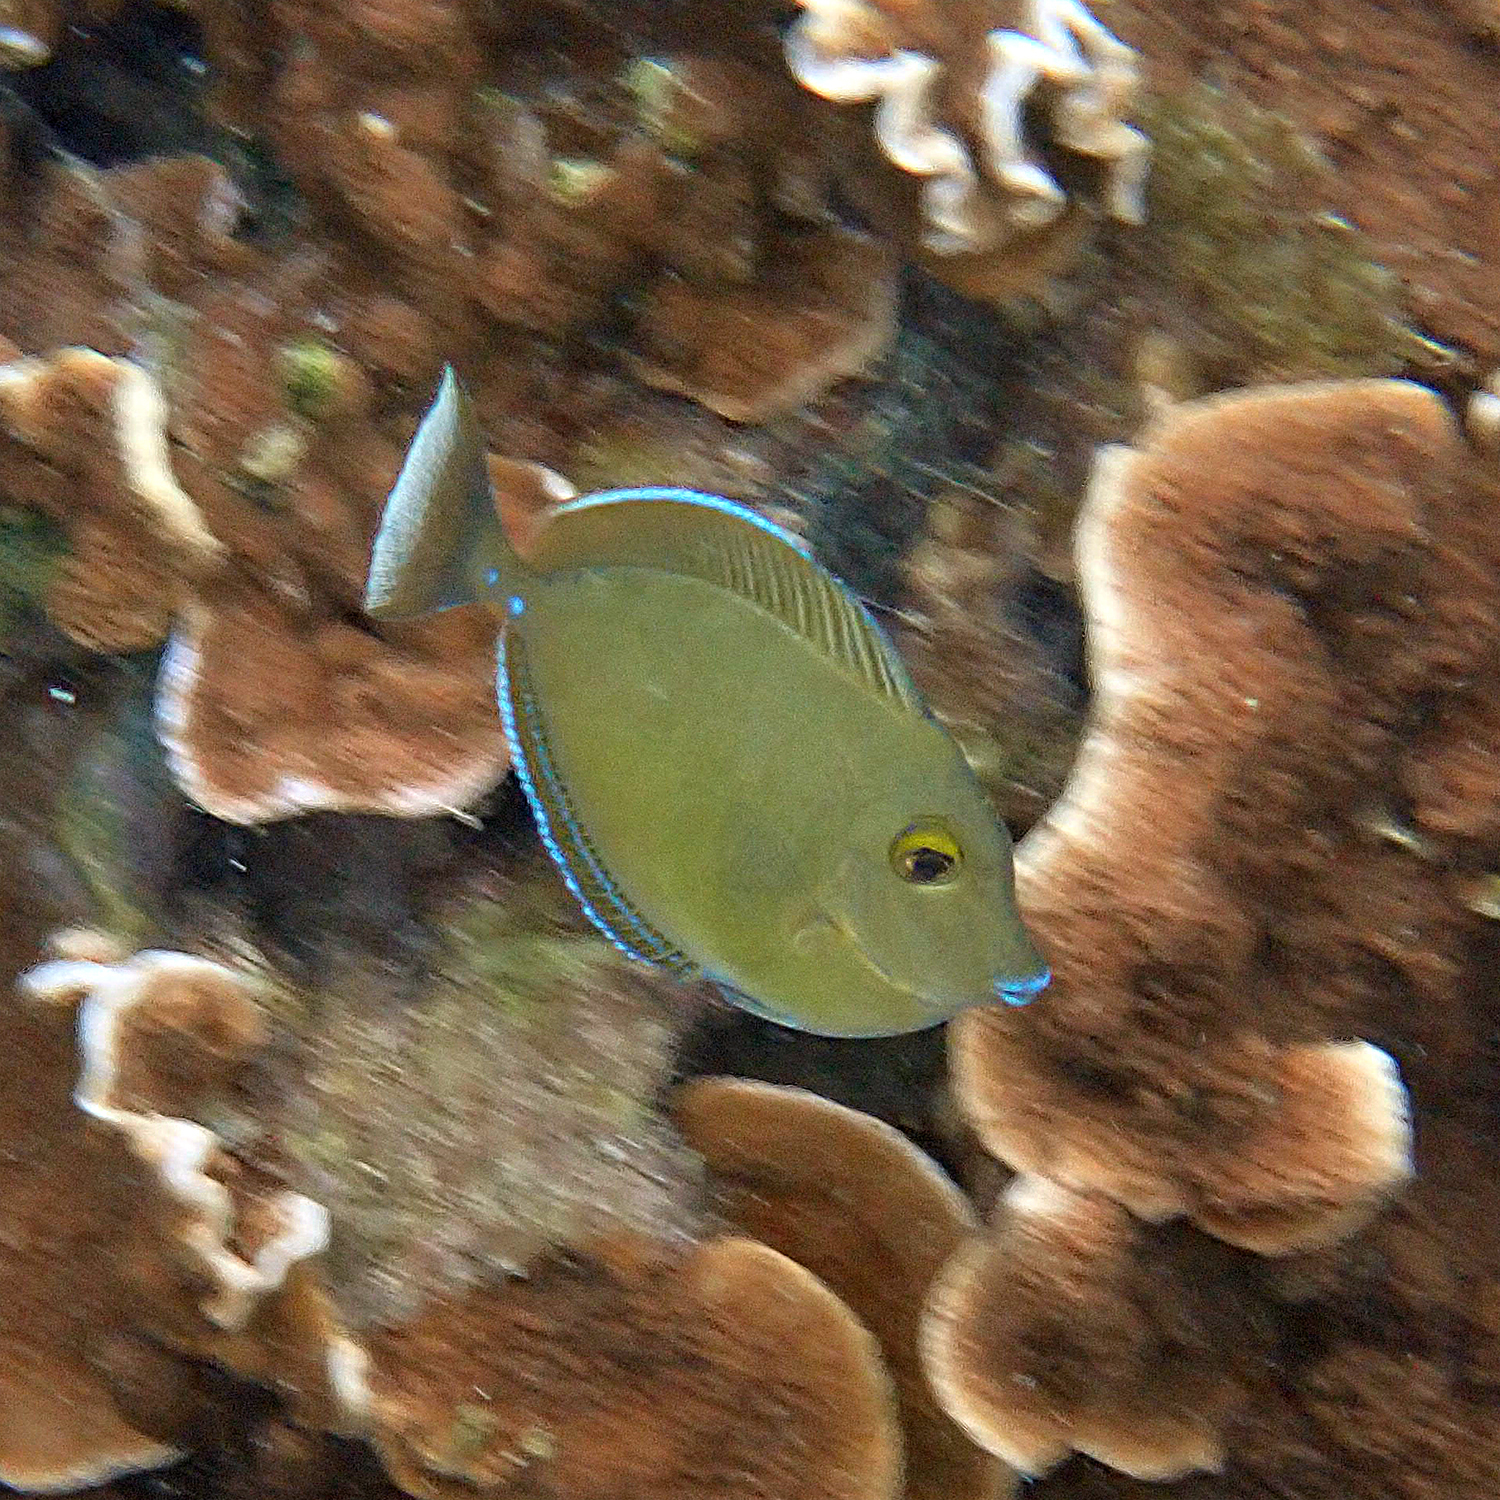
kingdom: Animalia
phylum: Chordata
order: Perciformes
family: Acanthuridae
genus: Naso
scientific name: Naso unicornis
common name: Bluespine unicornfish
